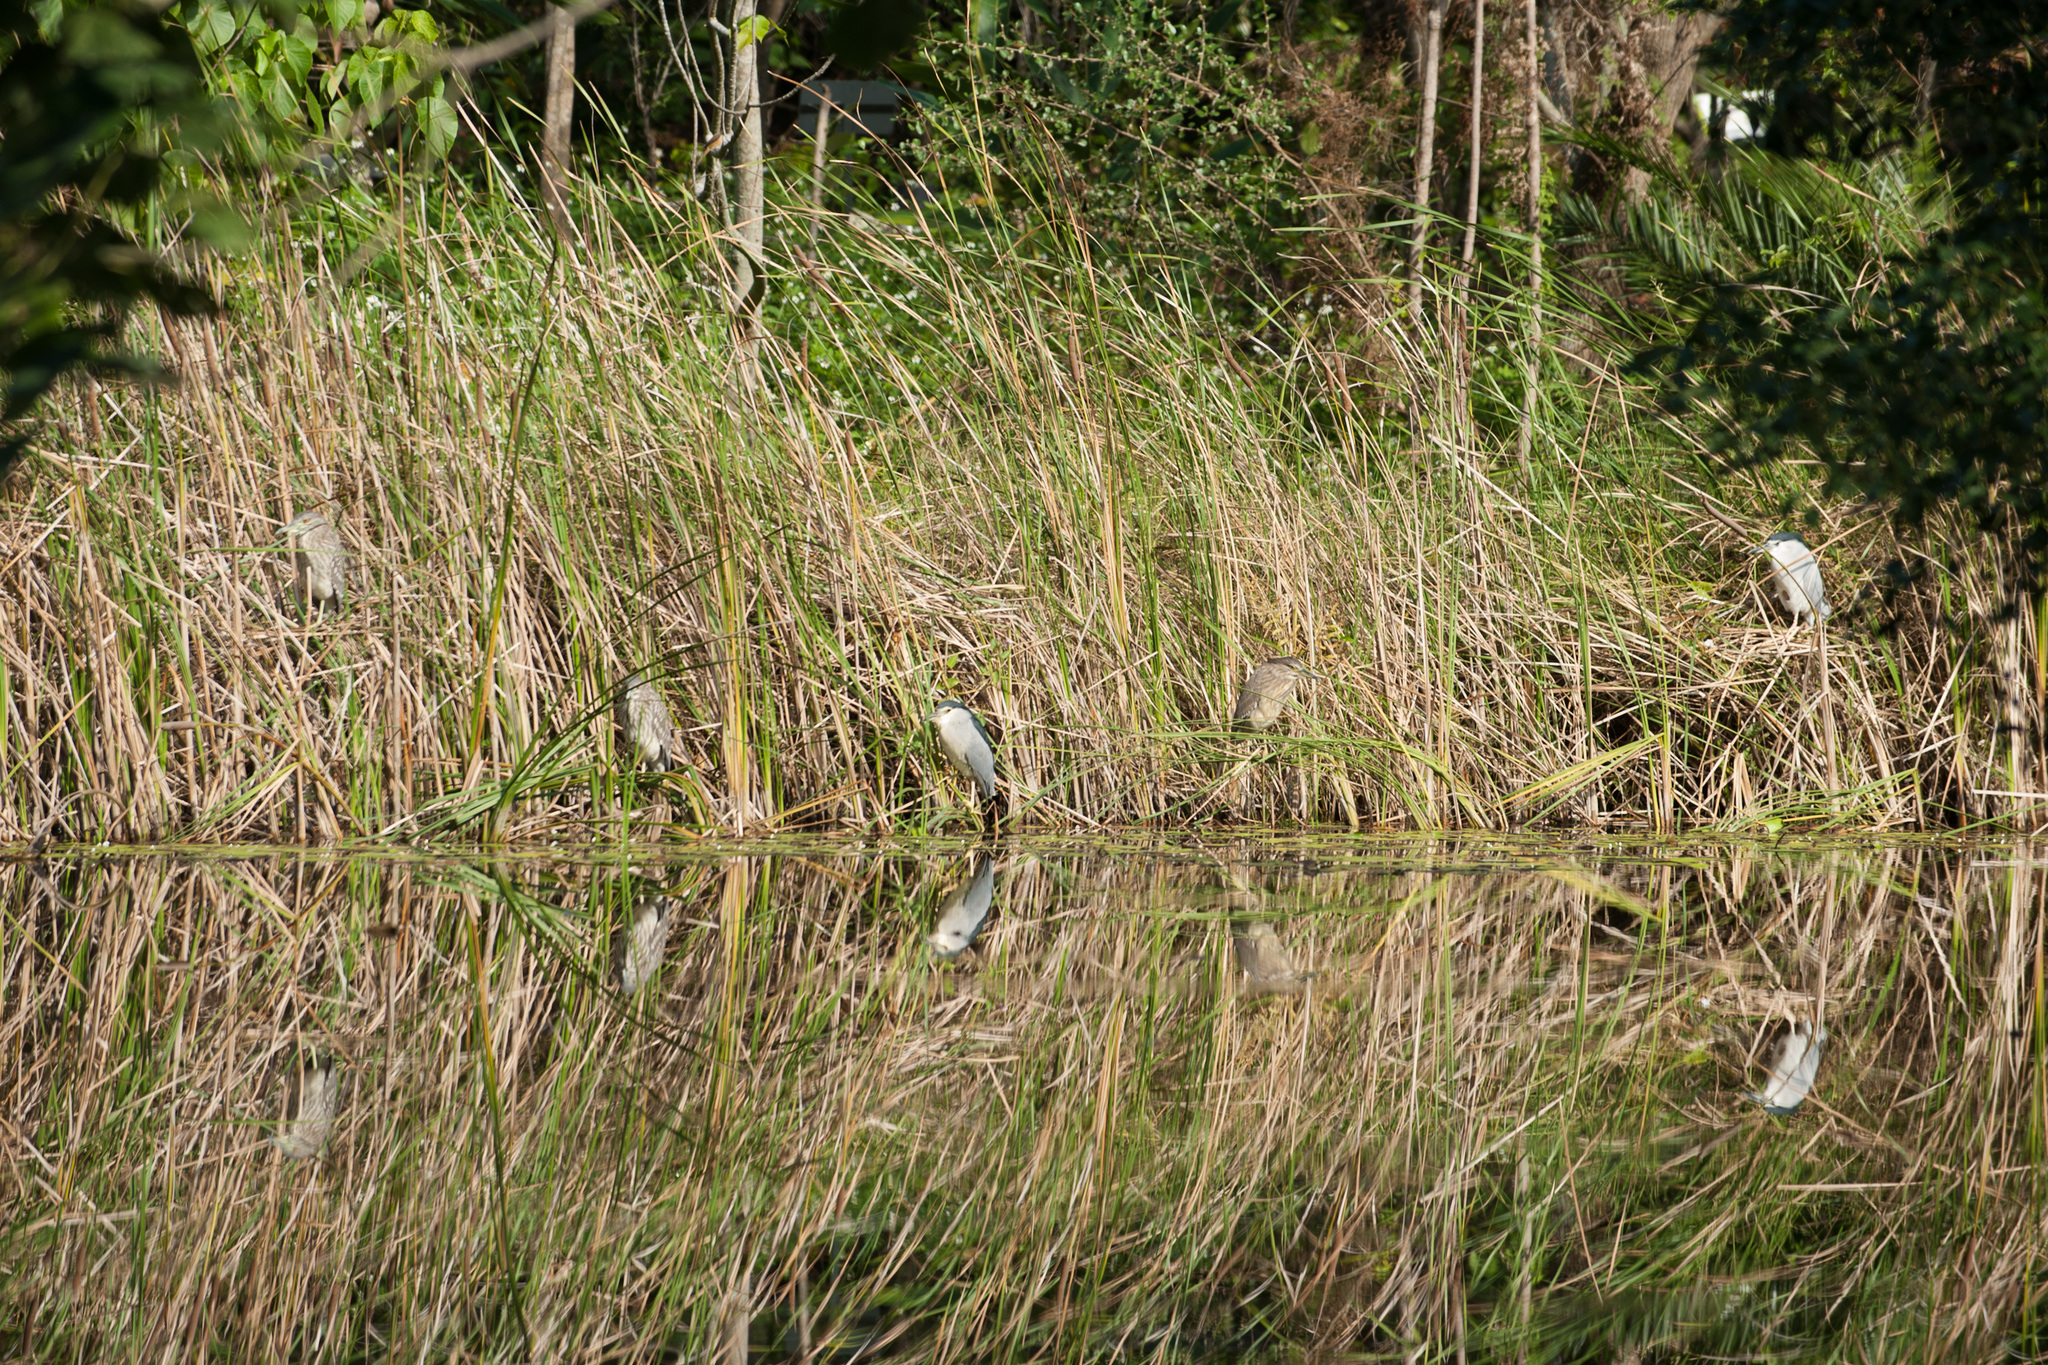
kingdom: Animalia
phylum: Chordata
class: Aves
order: Pelecaniformes
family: Ardeidae
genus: Nycticorax
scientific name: Nycticorax nycticorax
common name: Black-crowned night heron
